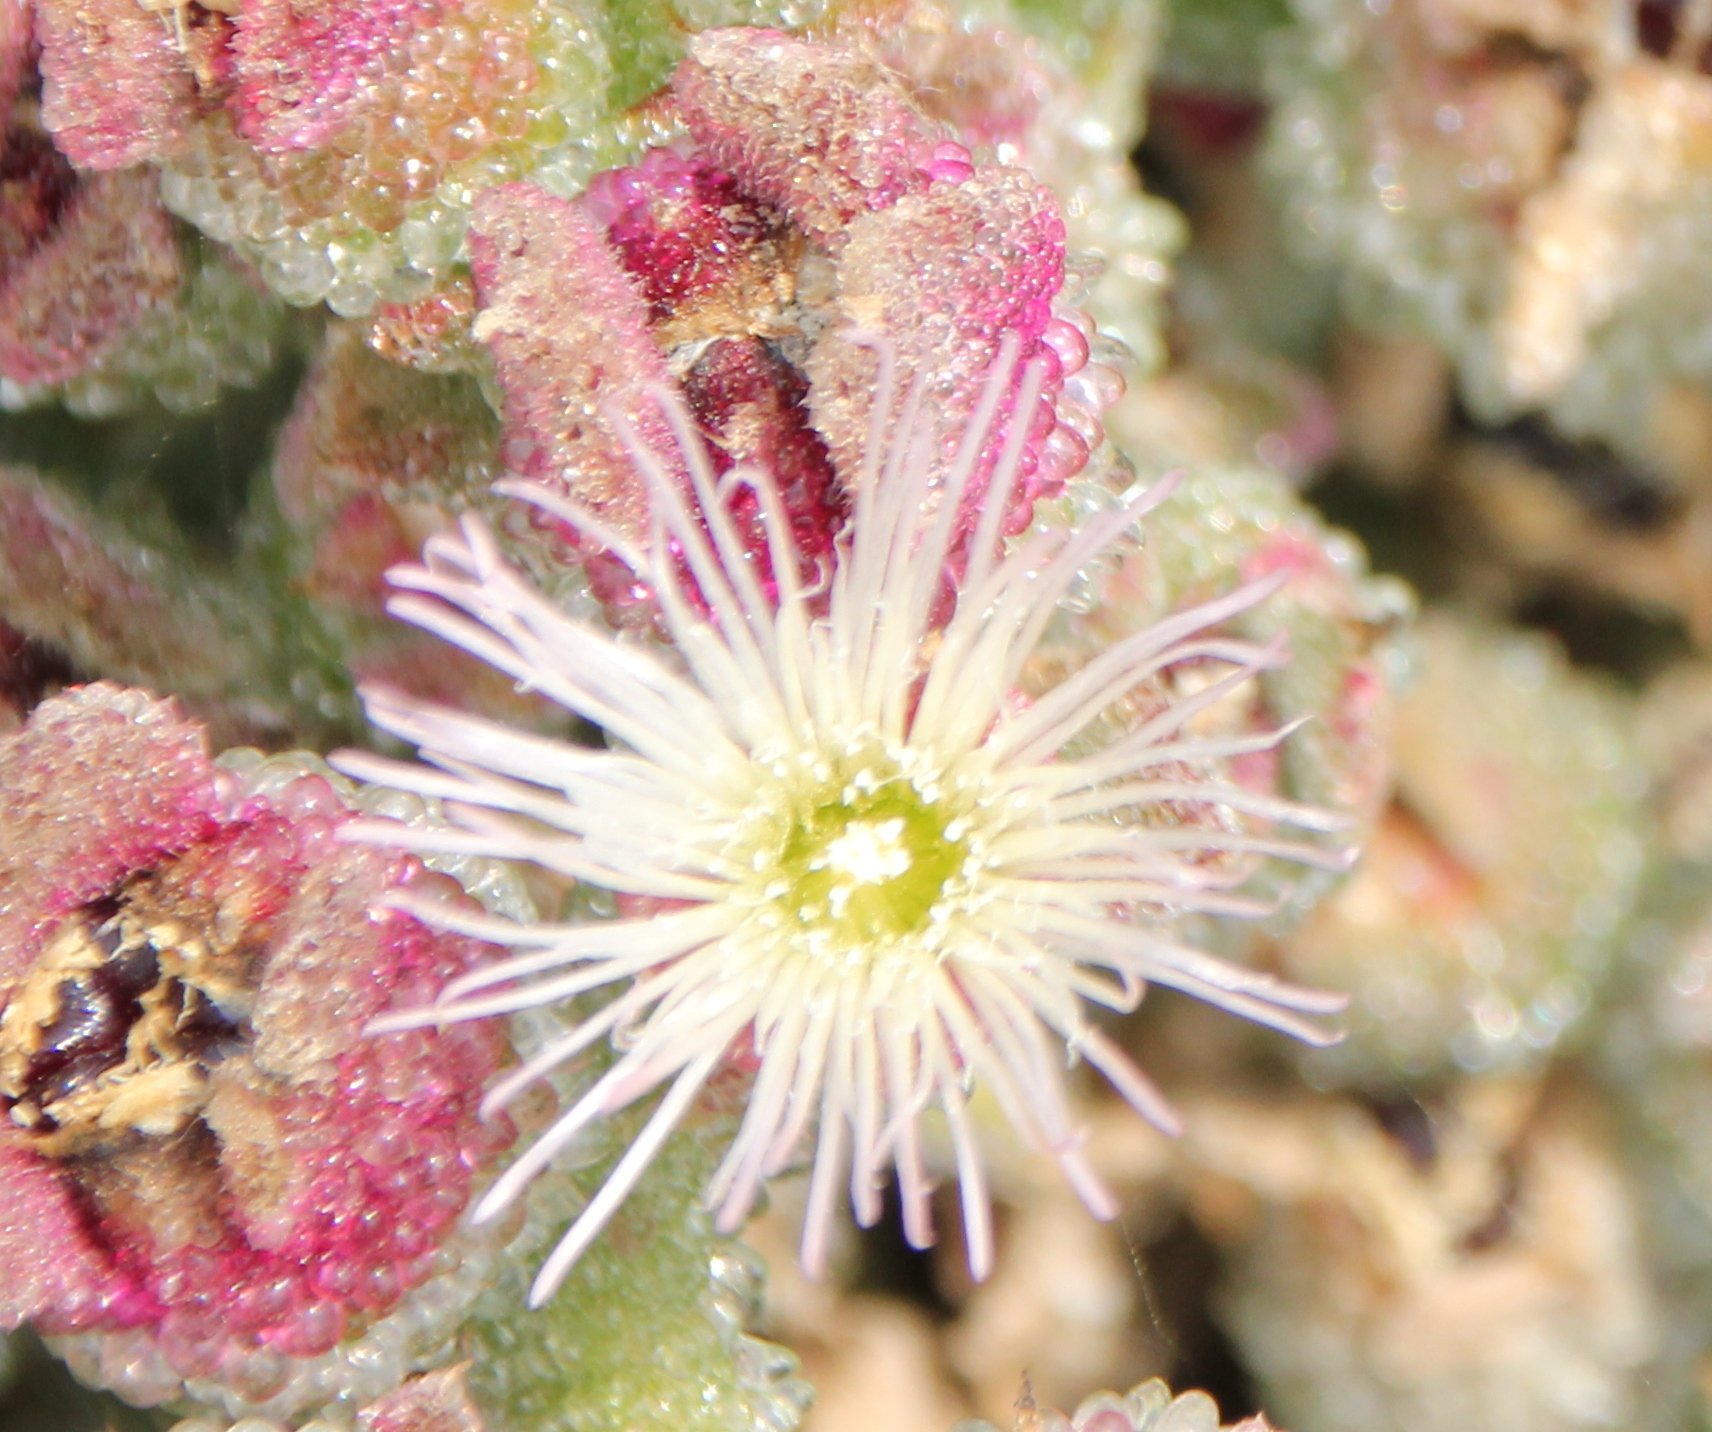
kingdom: Plantae
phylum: Tracheophyta
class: Magnoliopsida
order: Caryophyllales
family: Aizoaceae
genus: Mesembryanthemum
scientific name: Mesembryanthemum crystallinum
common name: Common iceplant
